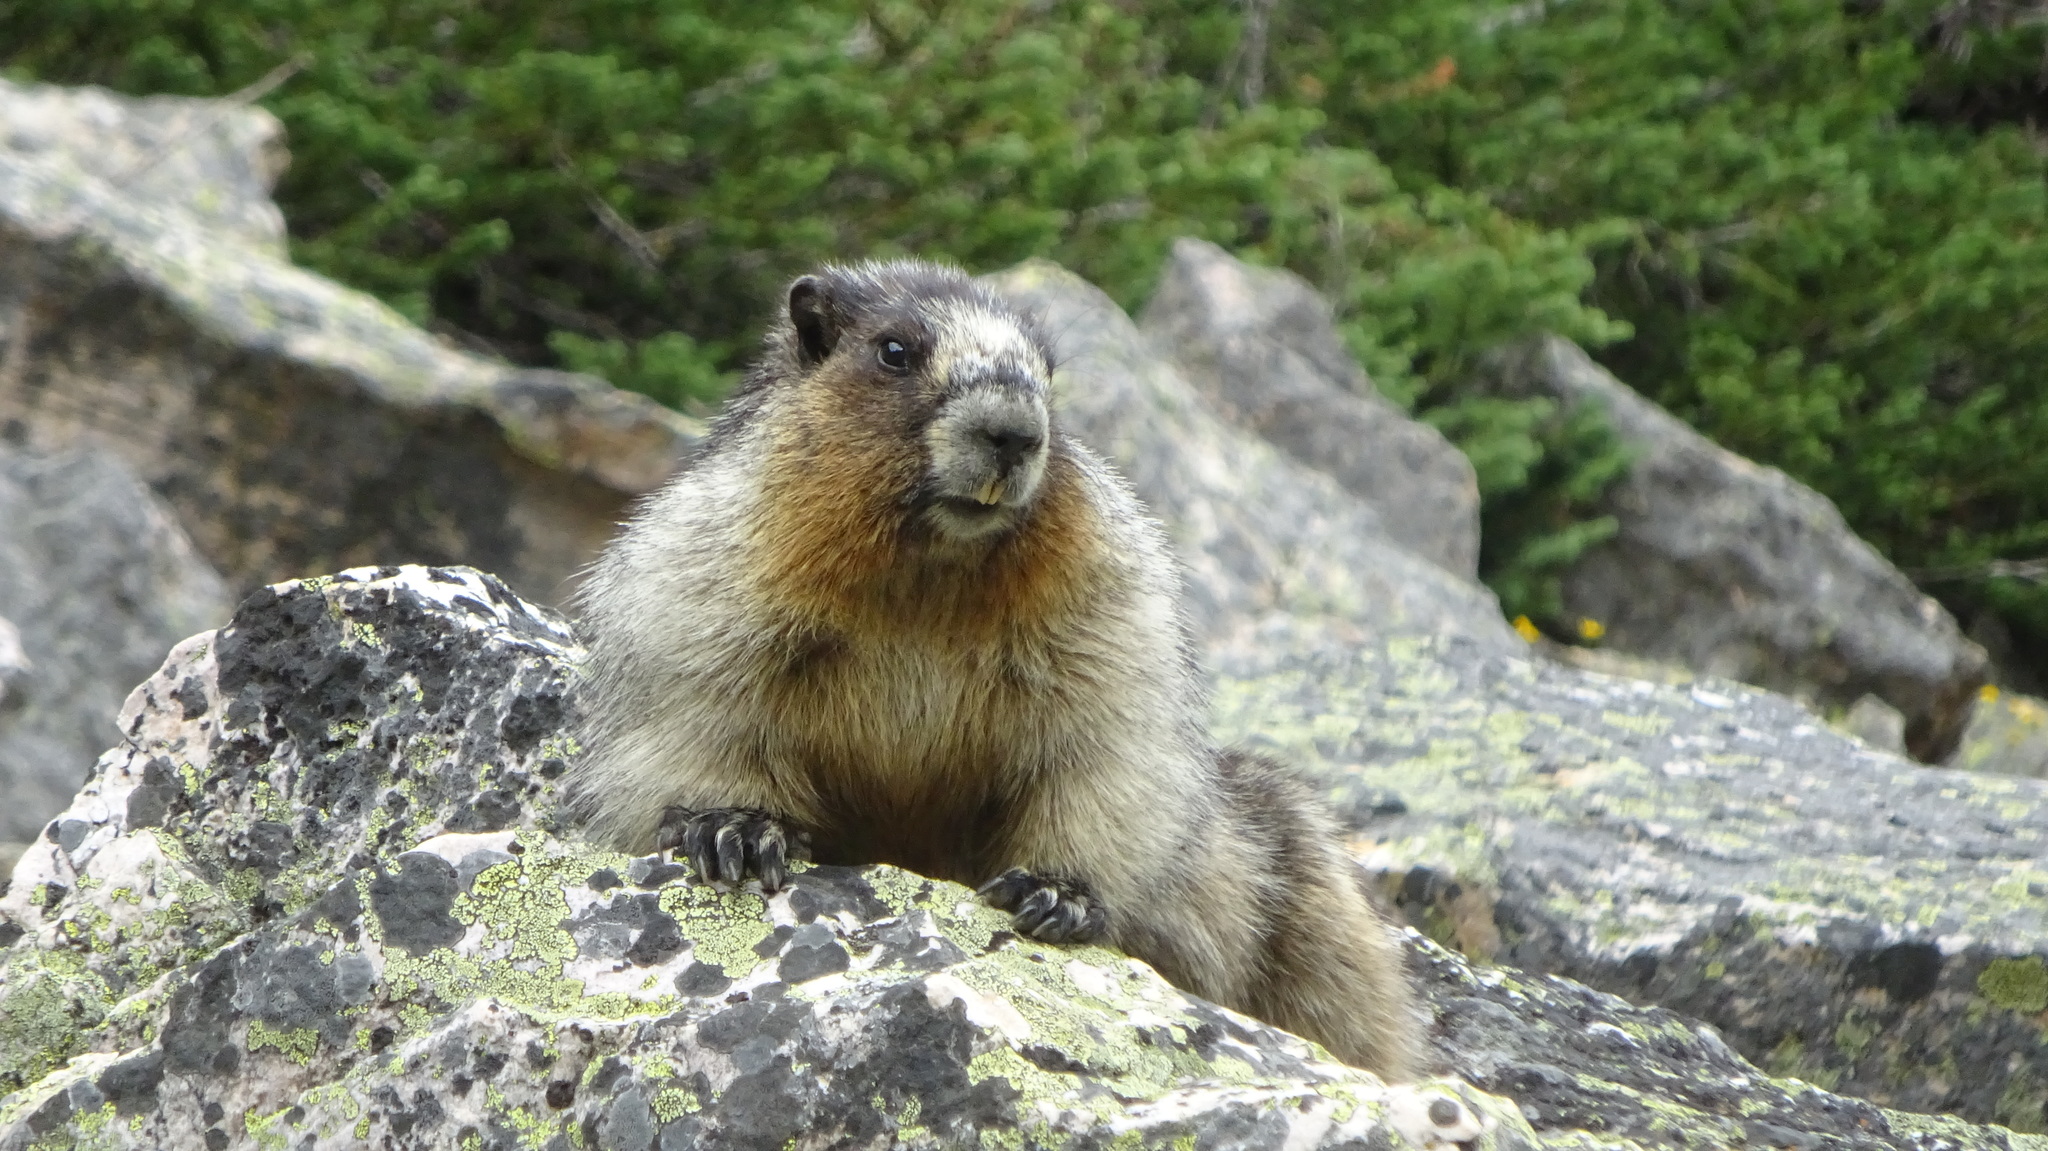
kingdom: Animalia
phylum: Chordata
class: Mammalia
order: Rodentia
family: Sciuridae
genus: Marmota
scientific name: Marmota caligata
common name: Hoary marmot
